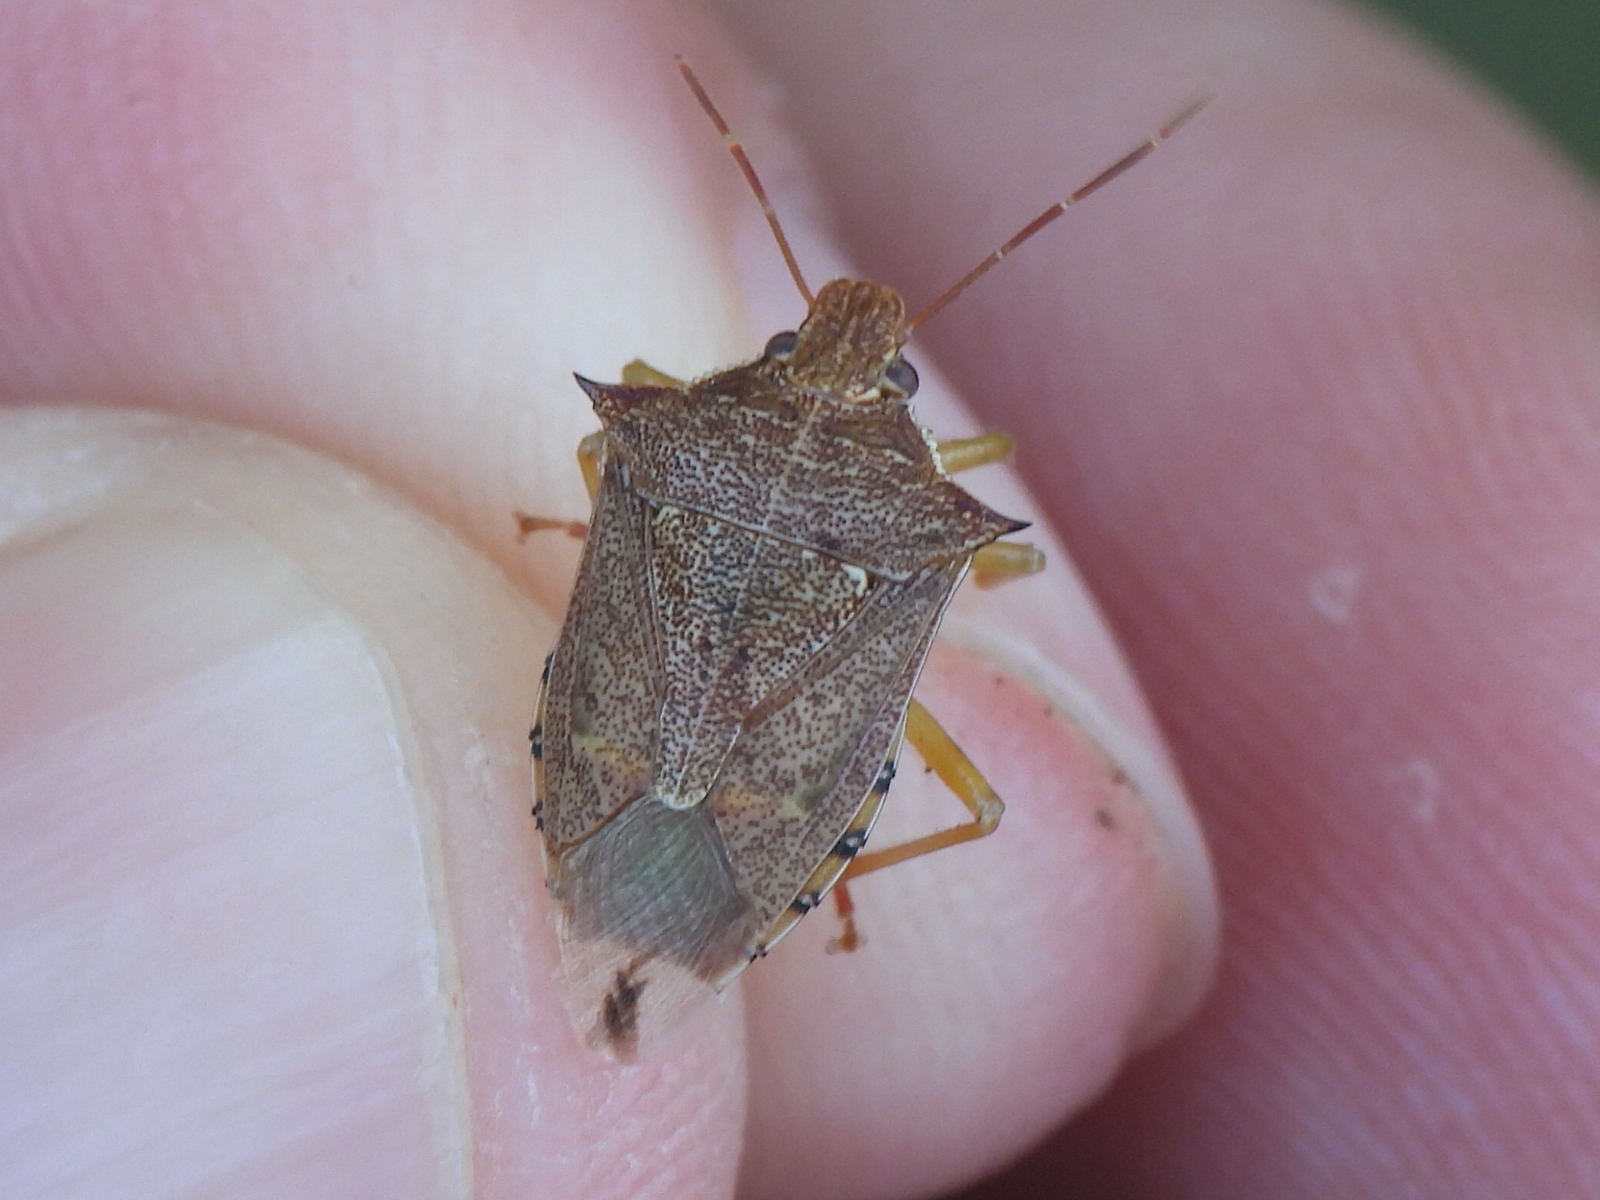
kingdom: Animalia
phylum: Arthropoda
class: Insecta
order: Hemiptera
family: Pentatomidae
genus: Podisus
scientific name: Podisus maculiventris
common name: Spined soldier bug
